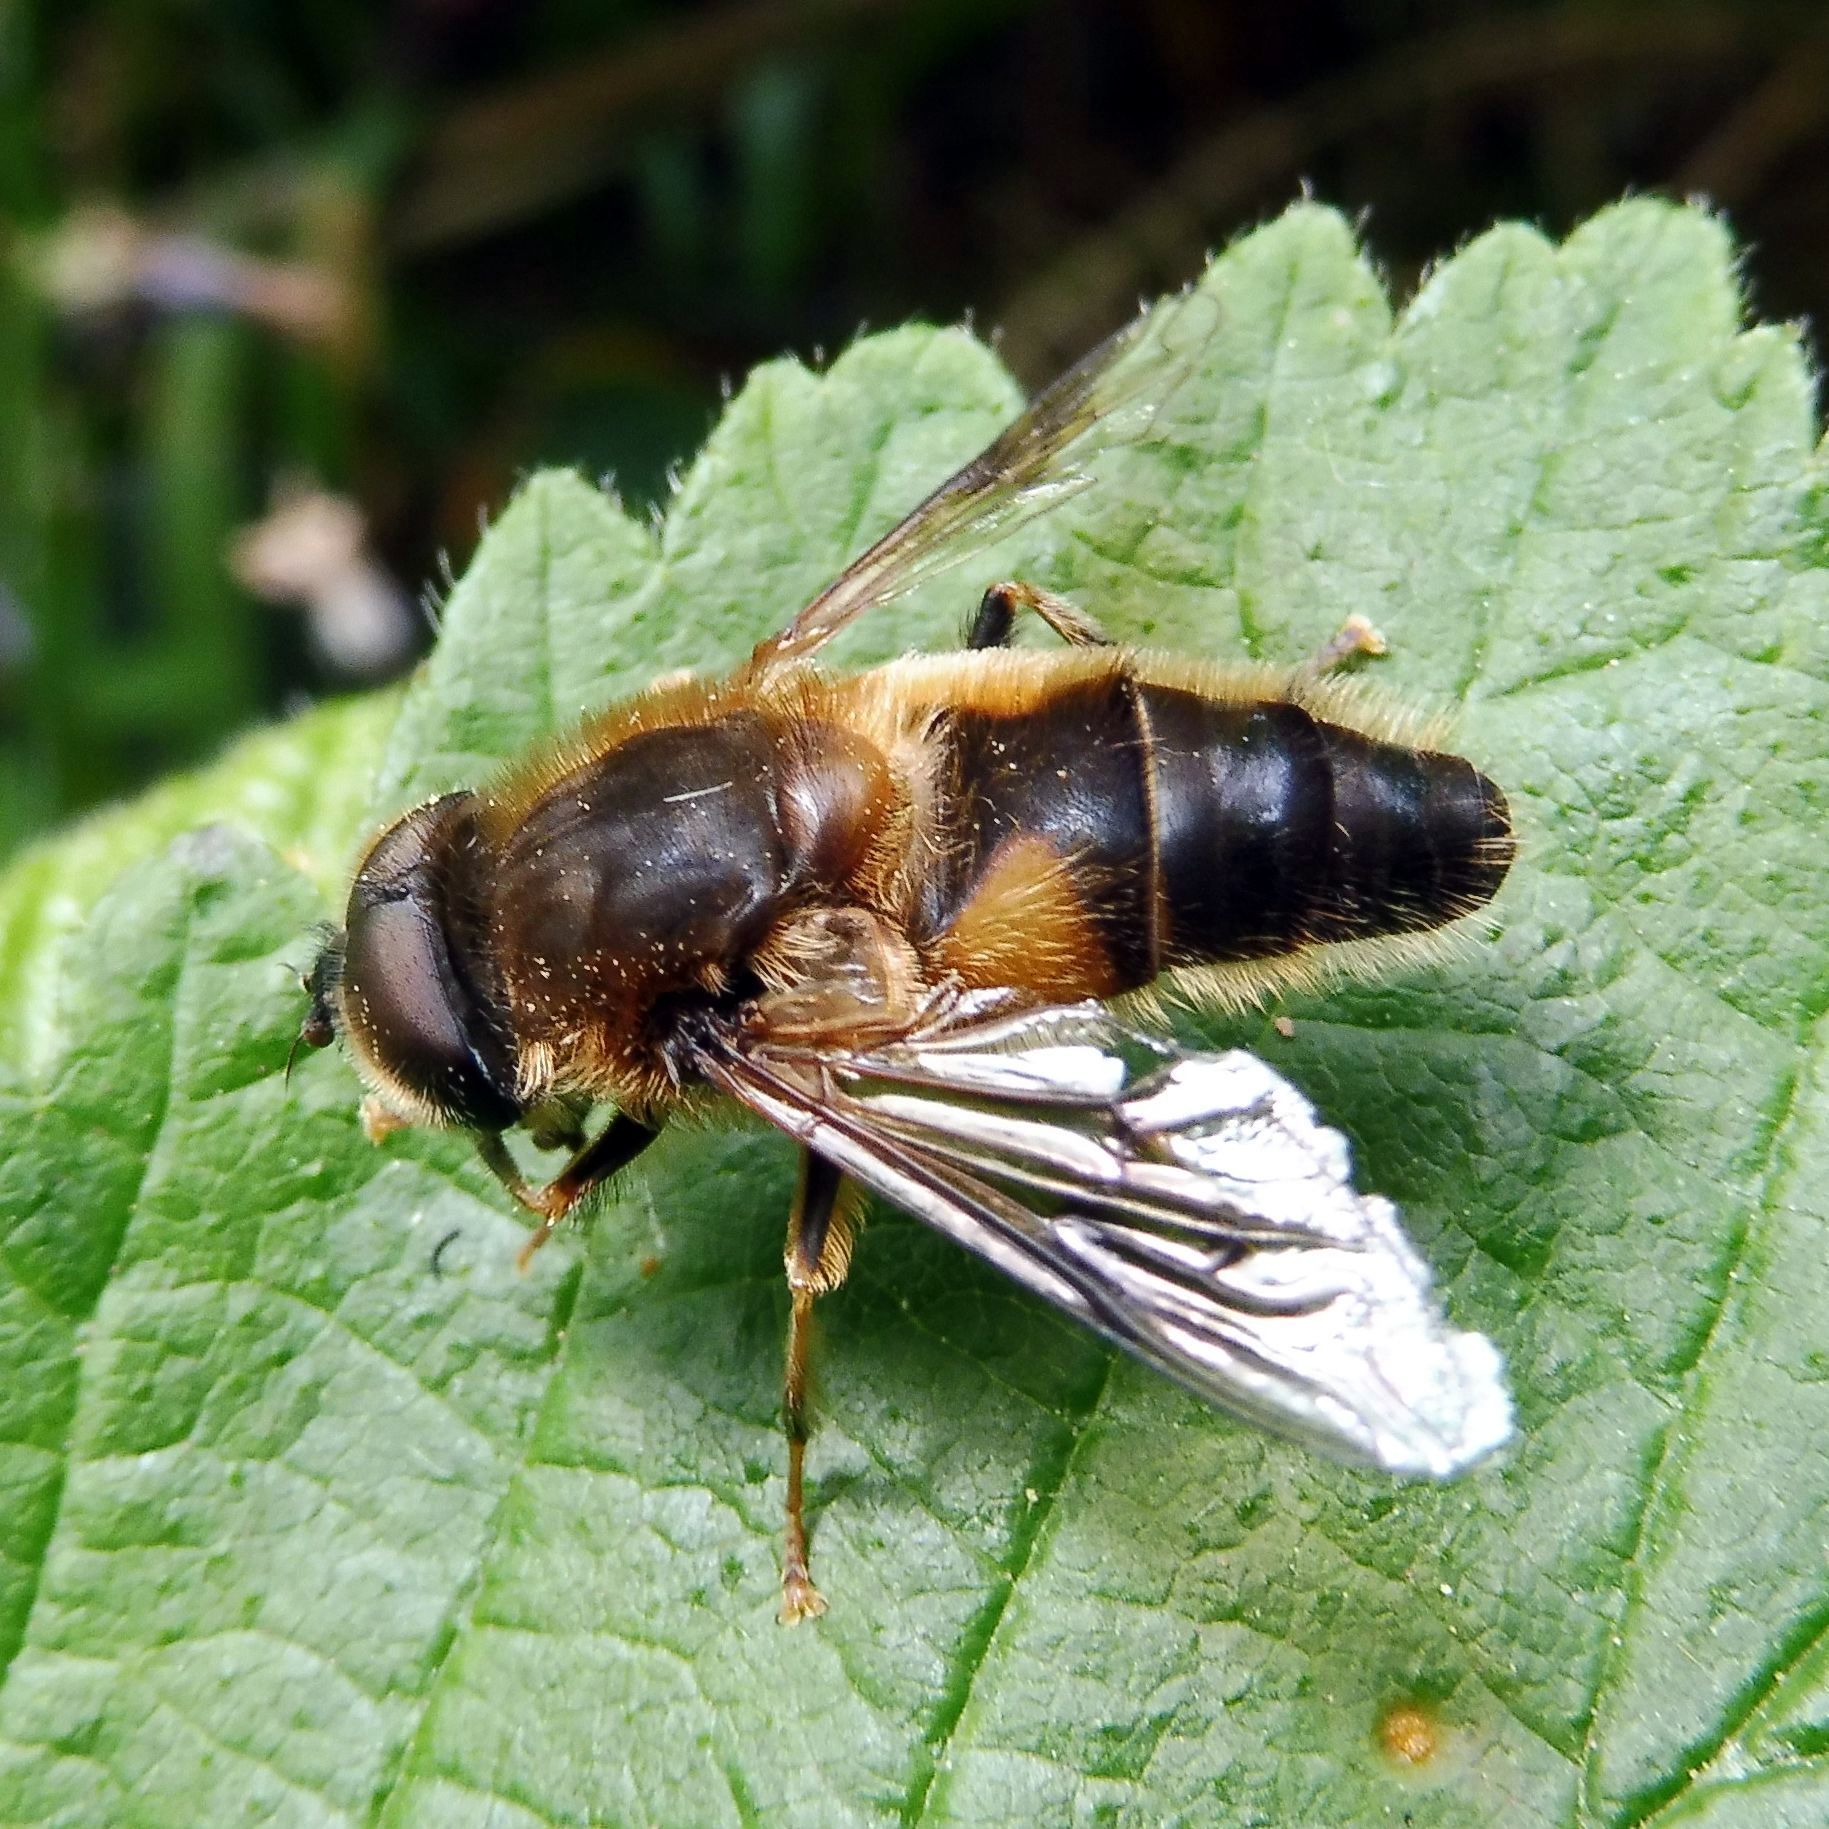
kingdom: Animalia
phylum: Arthropoda
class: Insecta
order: Diptera
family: Syrphidae
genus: Eristalis
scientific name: Eristalis pertinax
